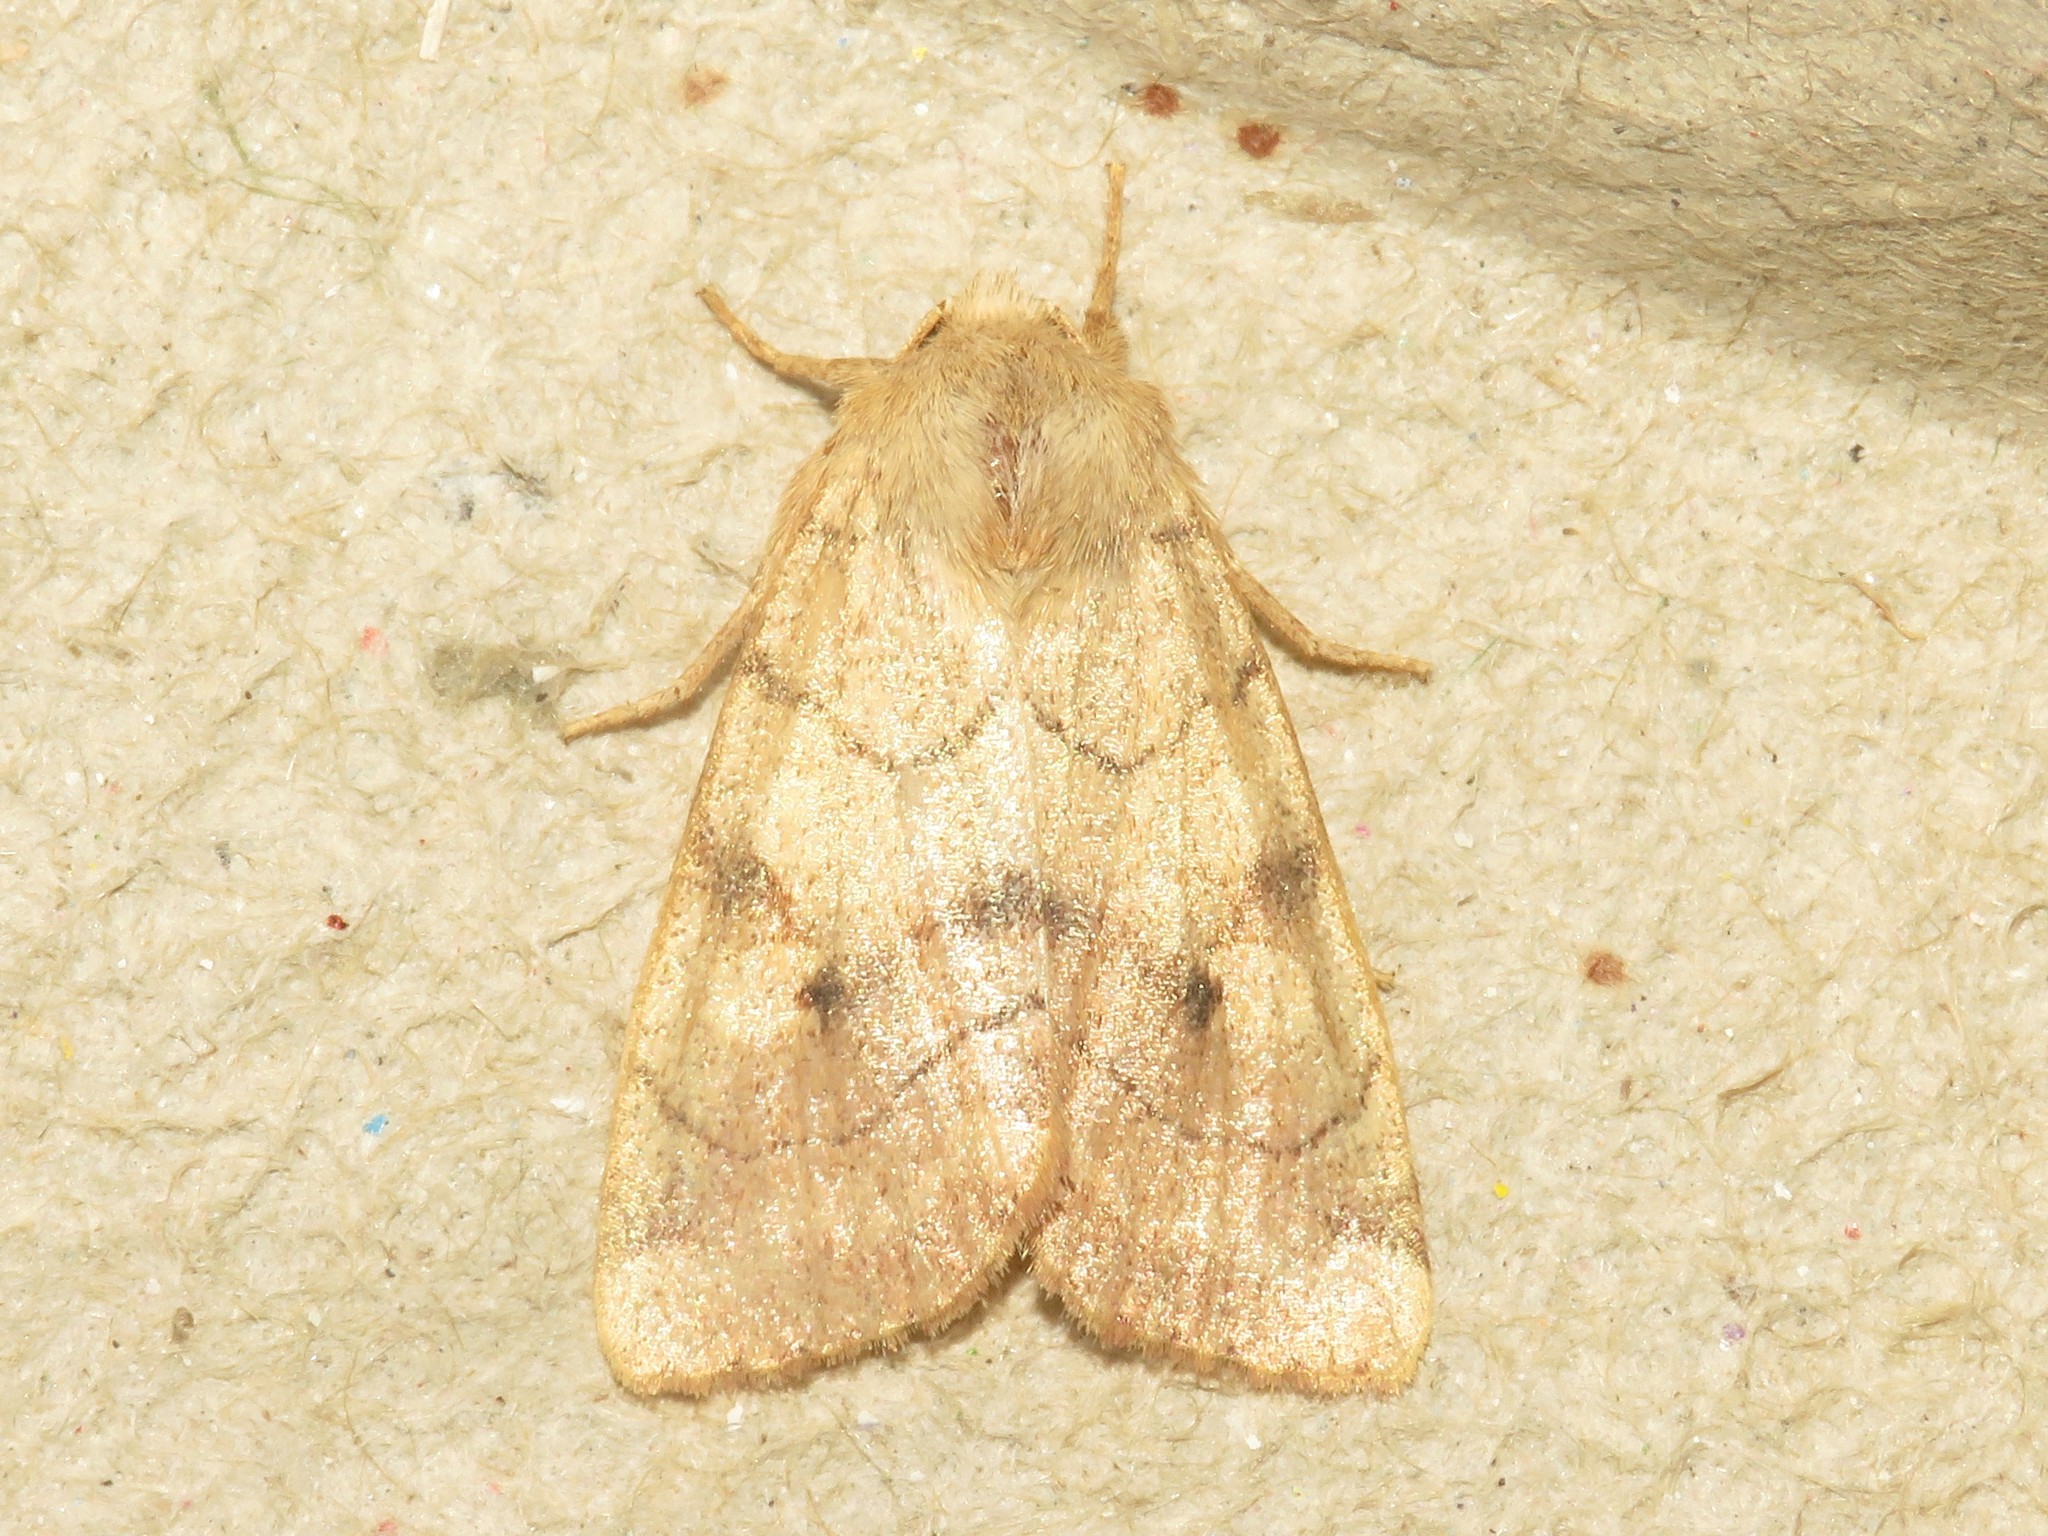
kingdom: Animalia
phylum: Arthropoda
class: Insecta
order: Lepidoptera
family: Noctuidae
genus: Enargia
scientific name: Enargia infumata
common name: Smoked sallow
